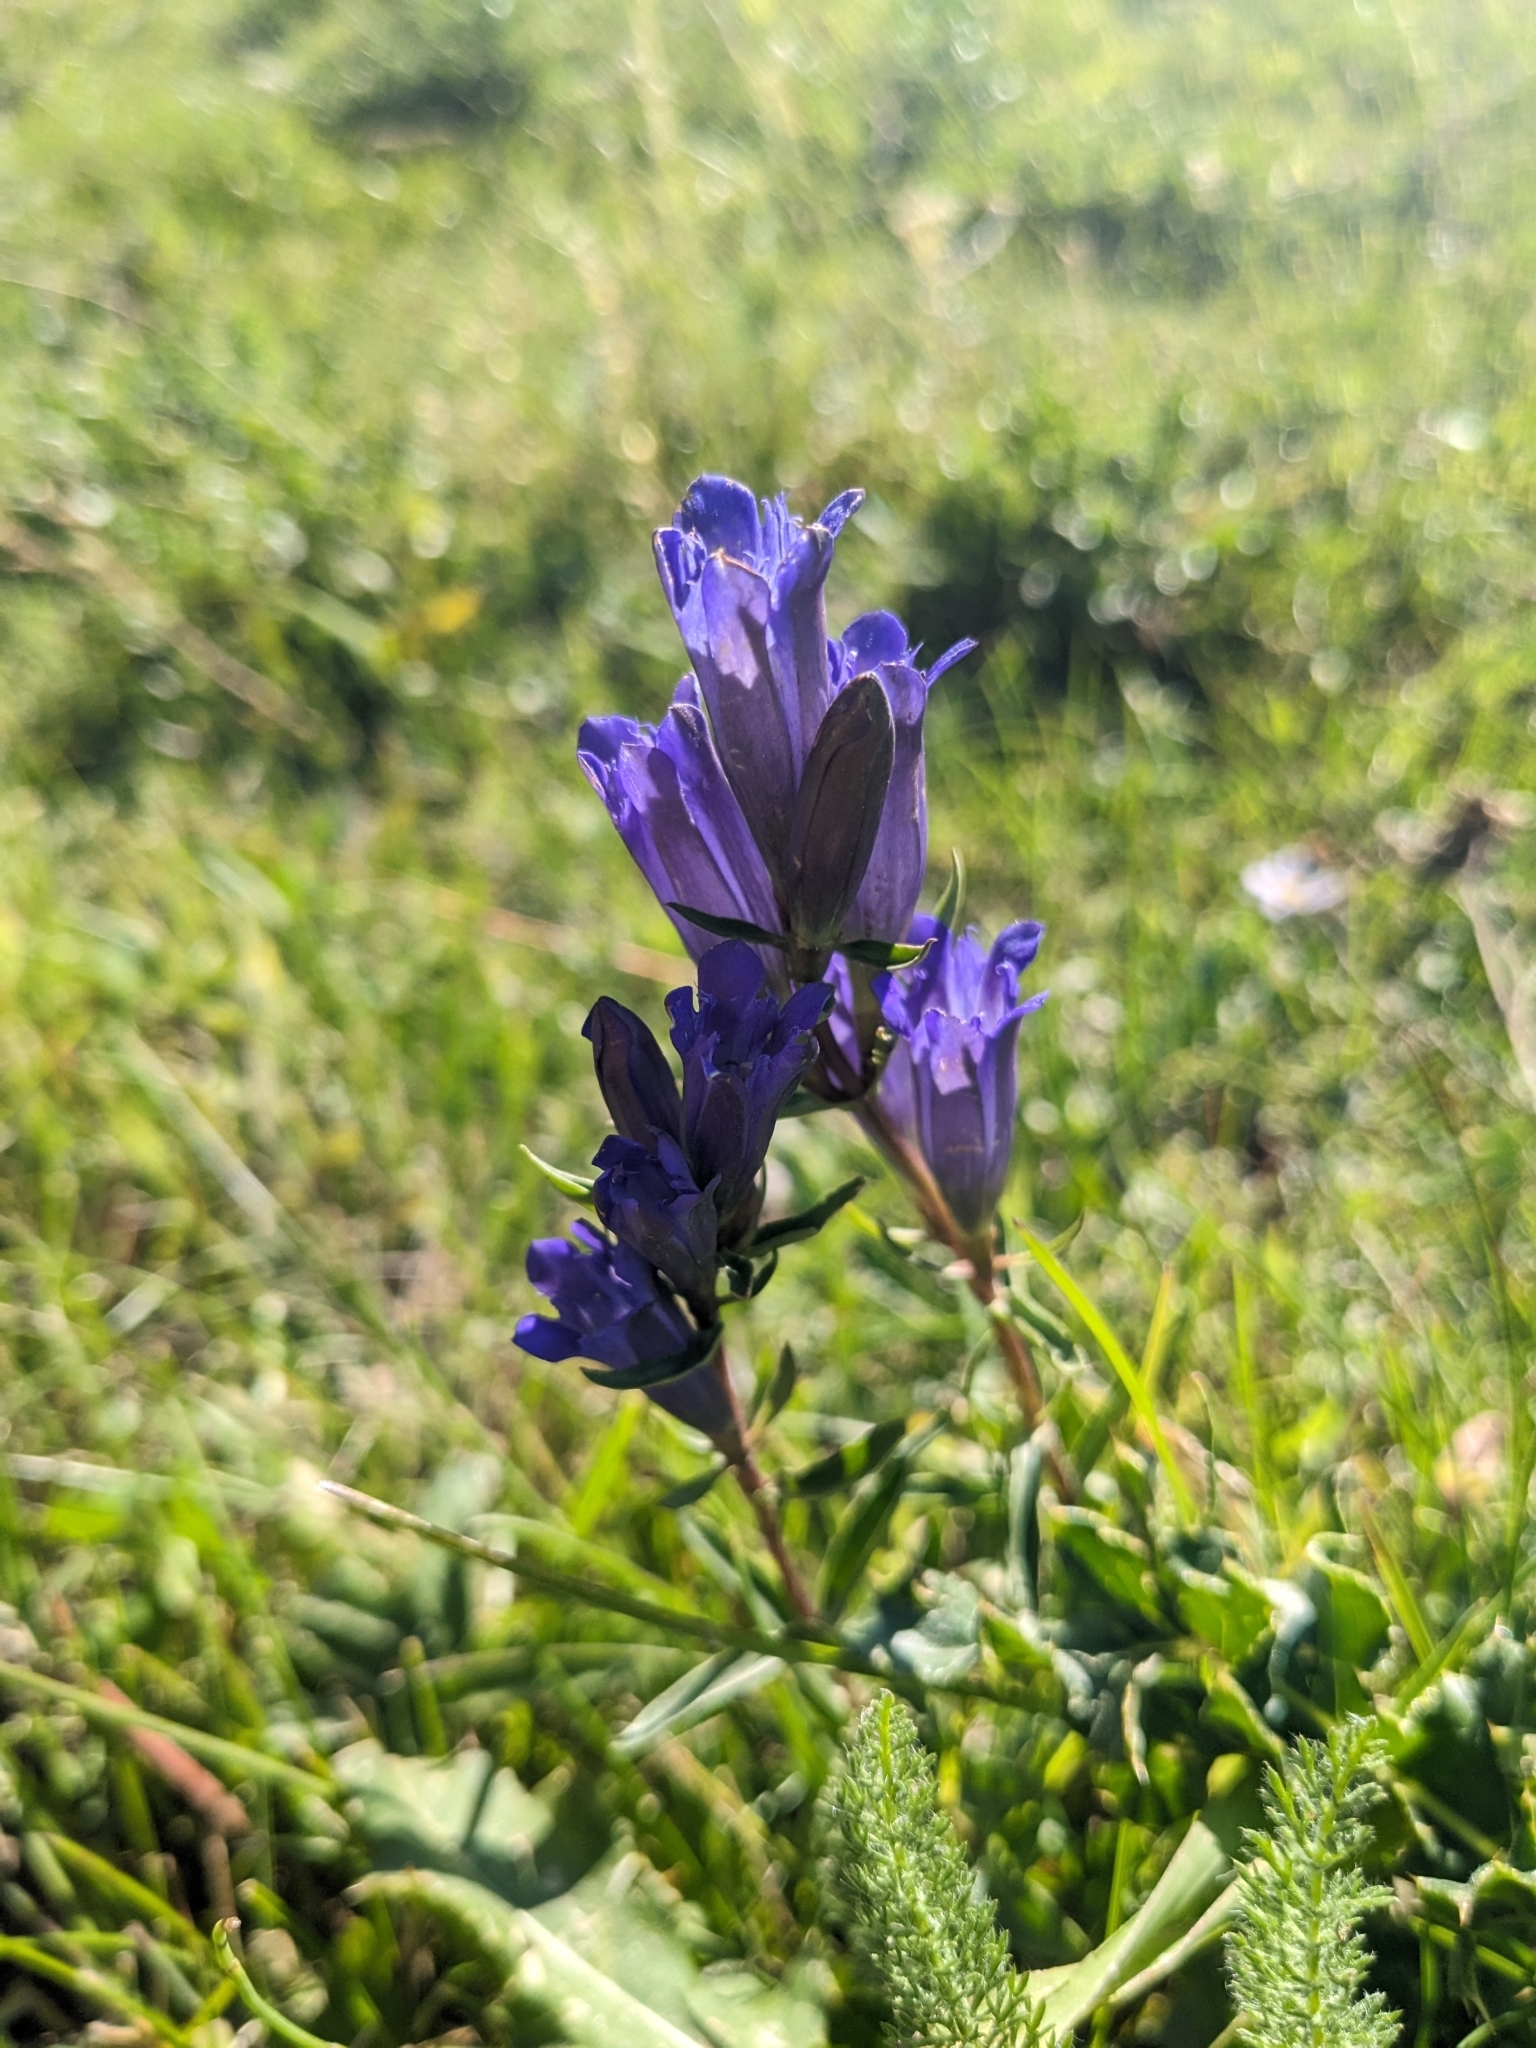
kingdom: Plantae
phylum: Tracheophyta
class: Magnoliopsida
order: Gentianales
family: Gentianaceae
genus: Gentiana
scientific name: Gentiana affinis
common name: Rocky mountain gentian
